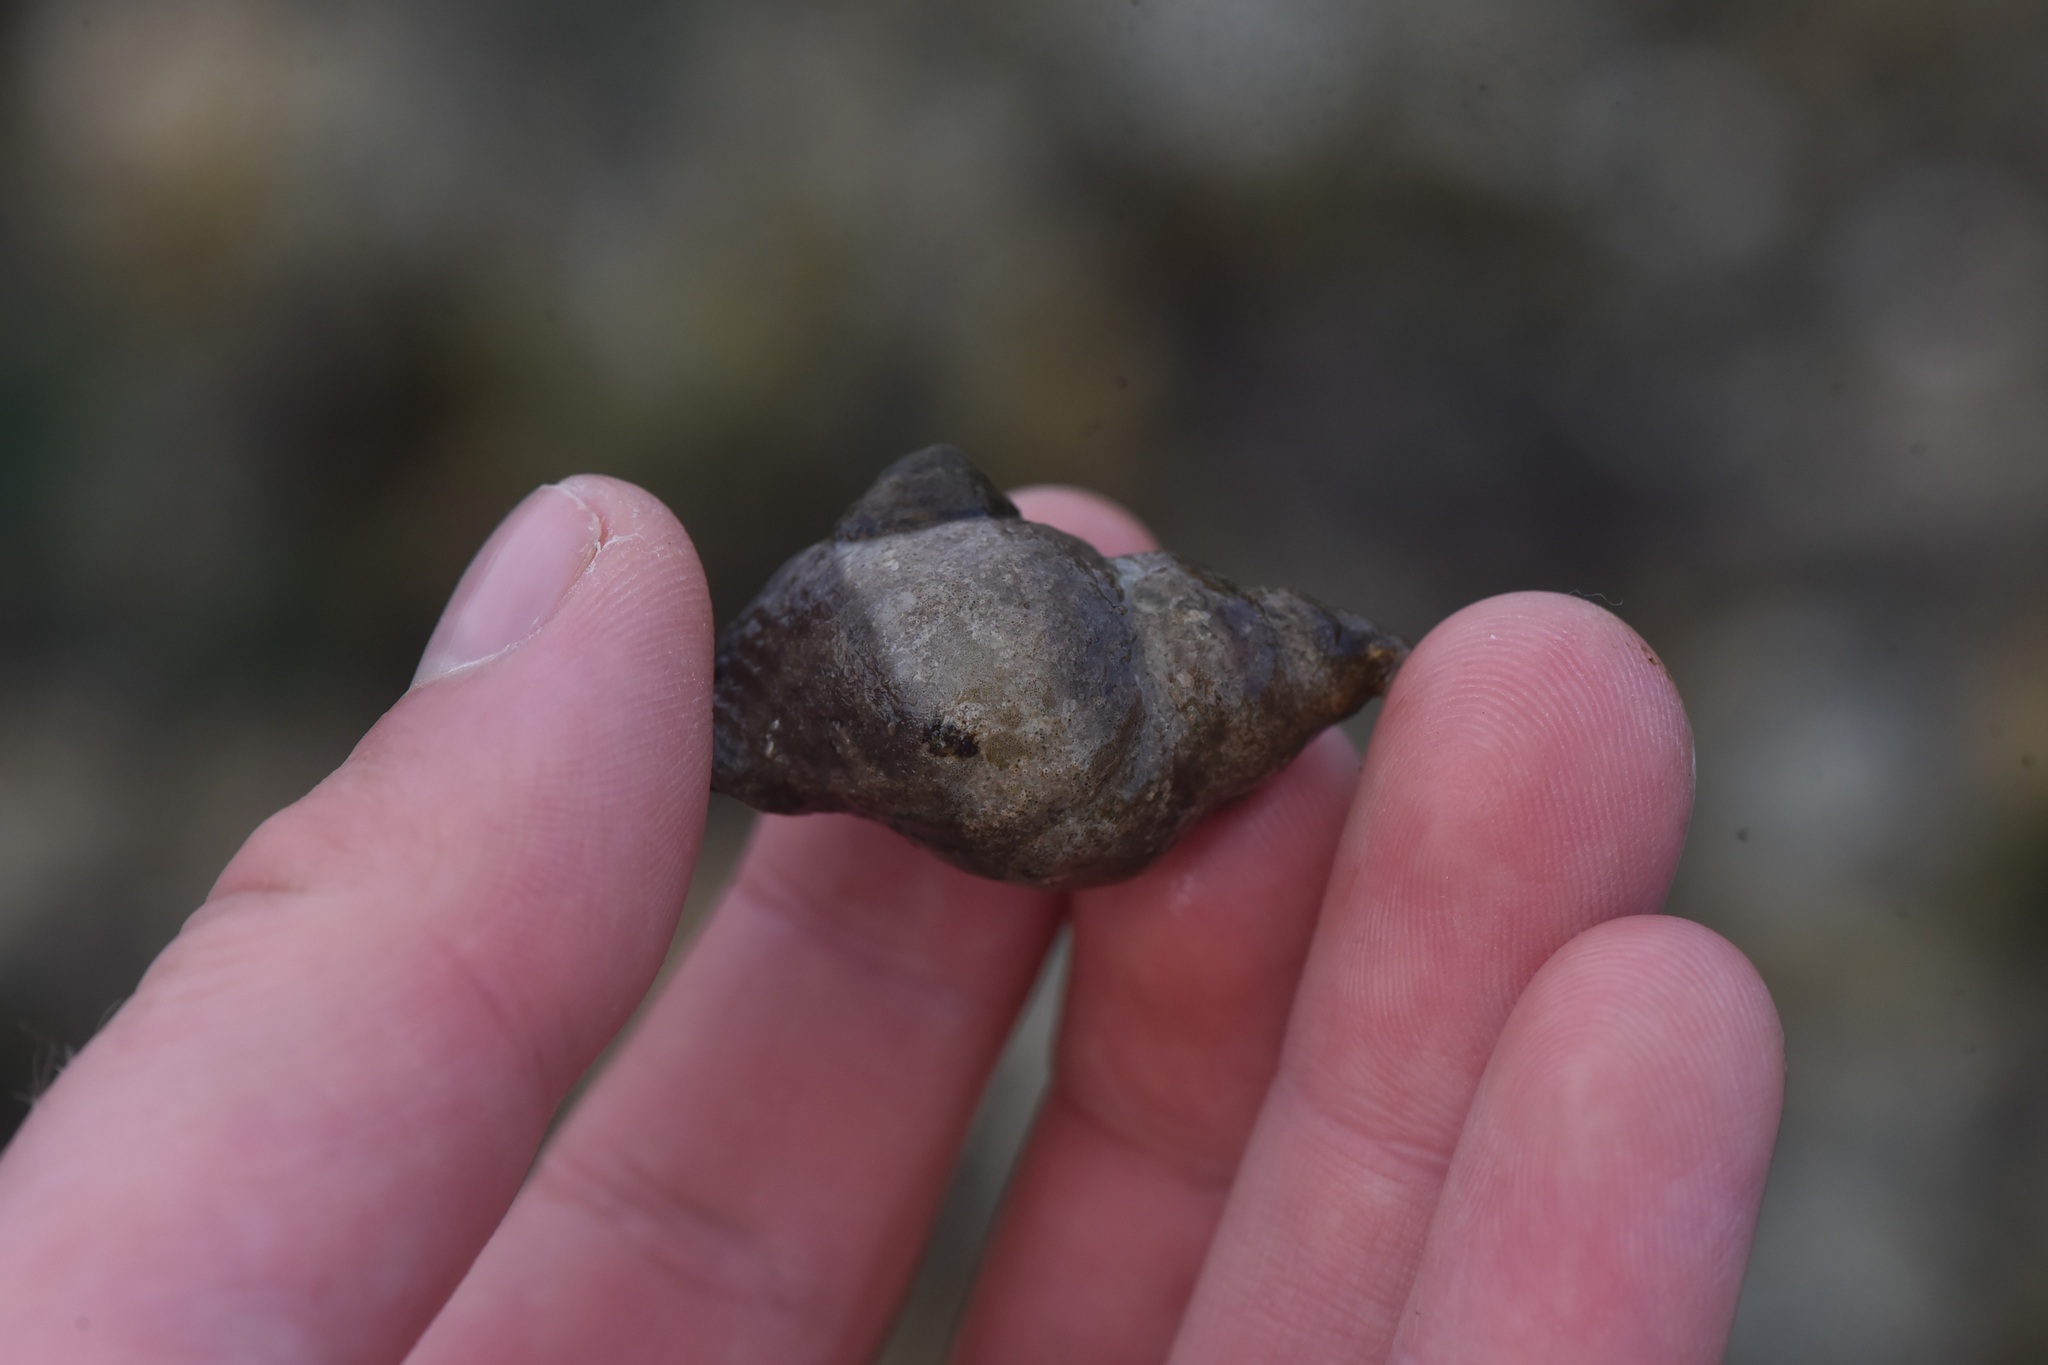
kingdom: Animalia
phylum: Mollusca
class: Gastropoda
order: Neogastropoda
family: Muricidae
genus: Nucella
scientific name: Nucella lamellosa
